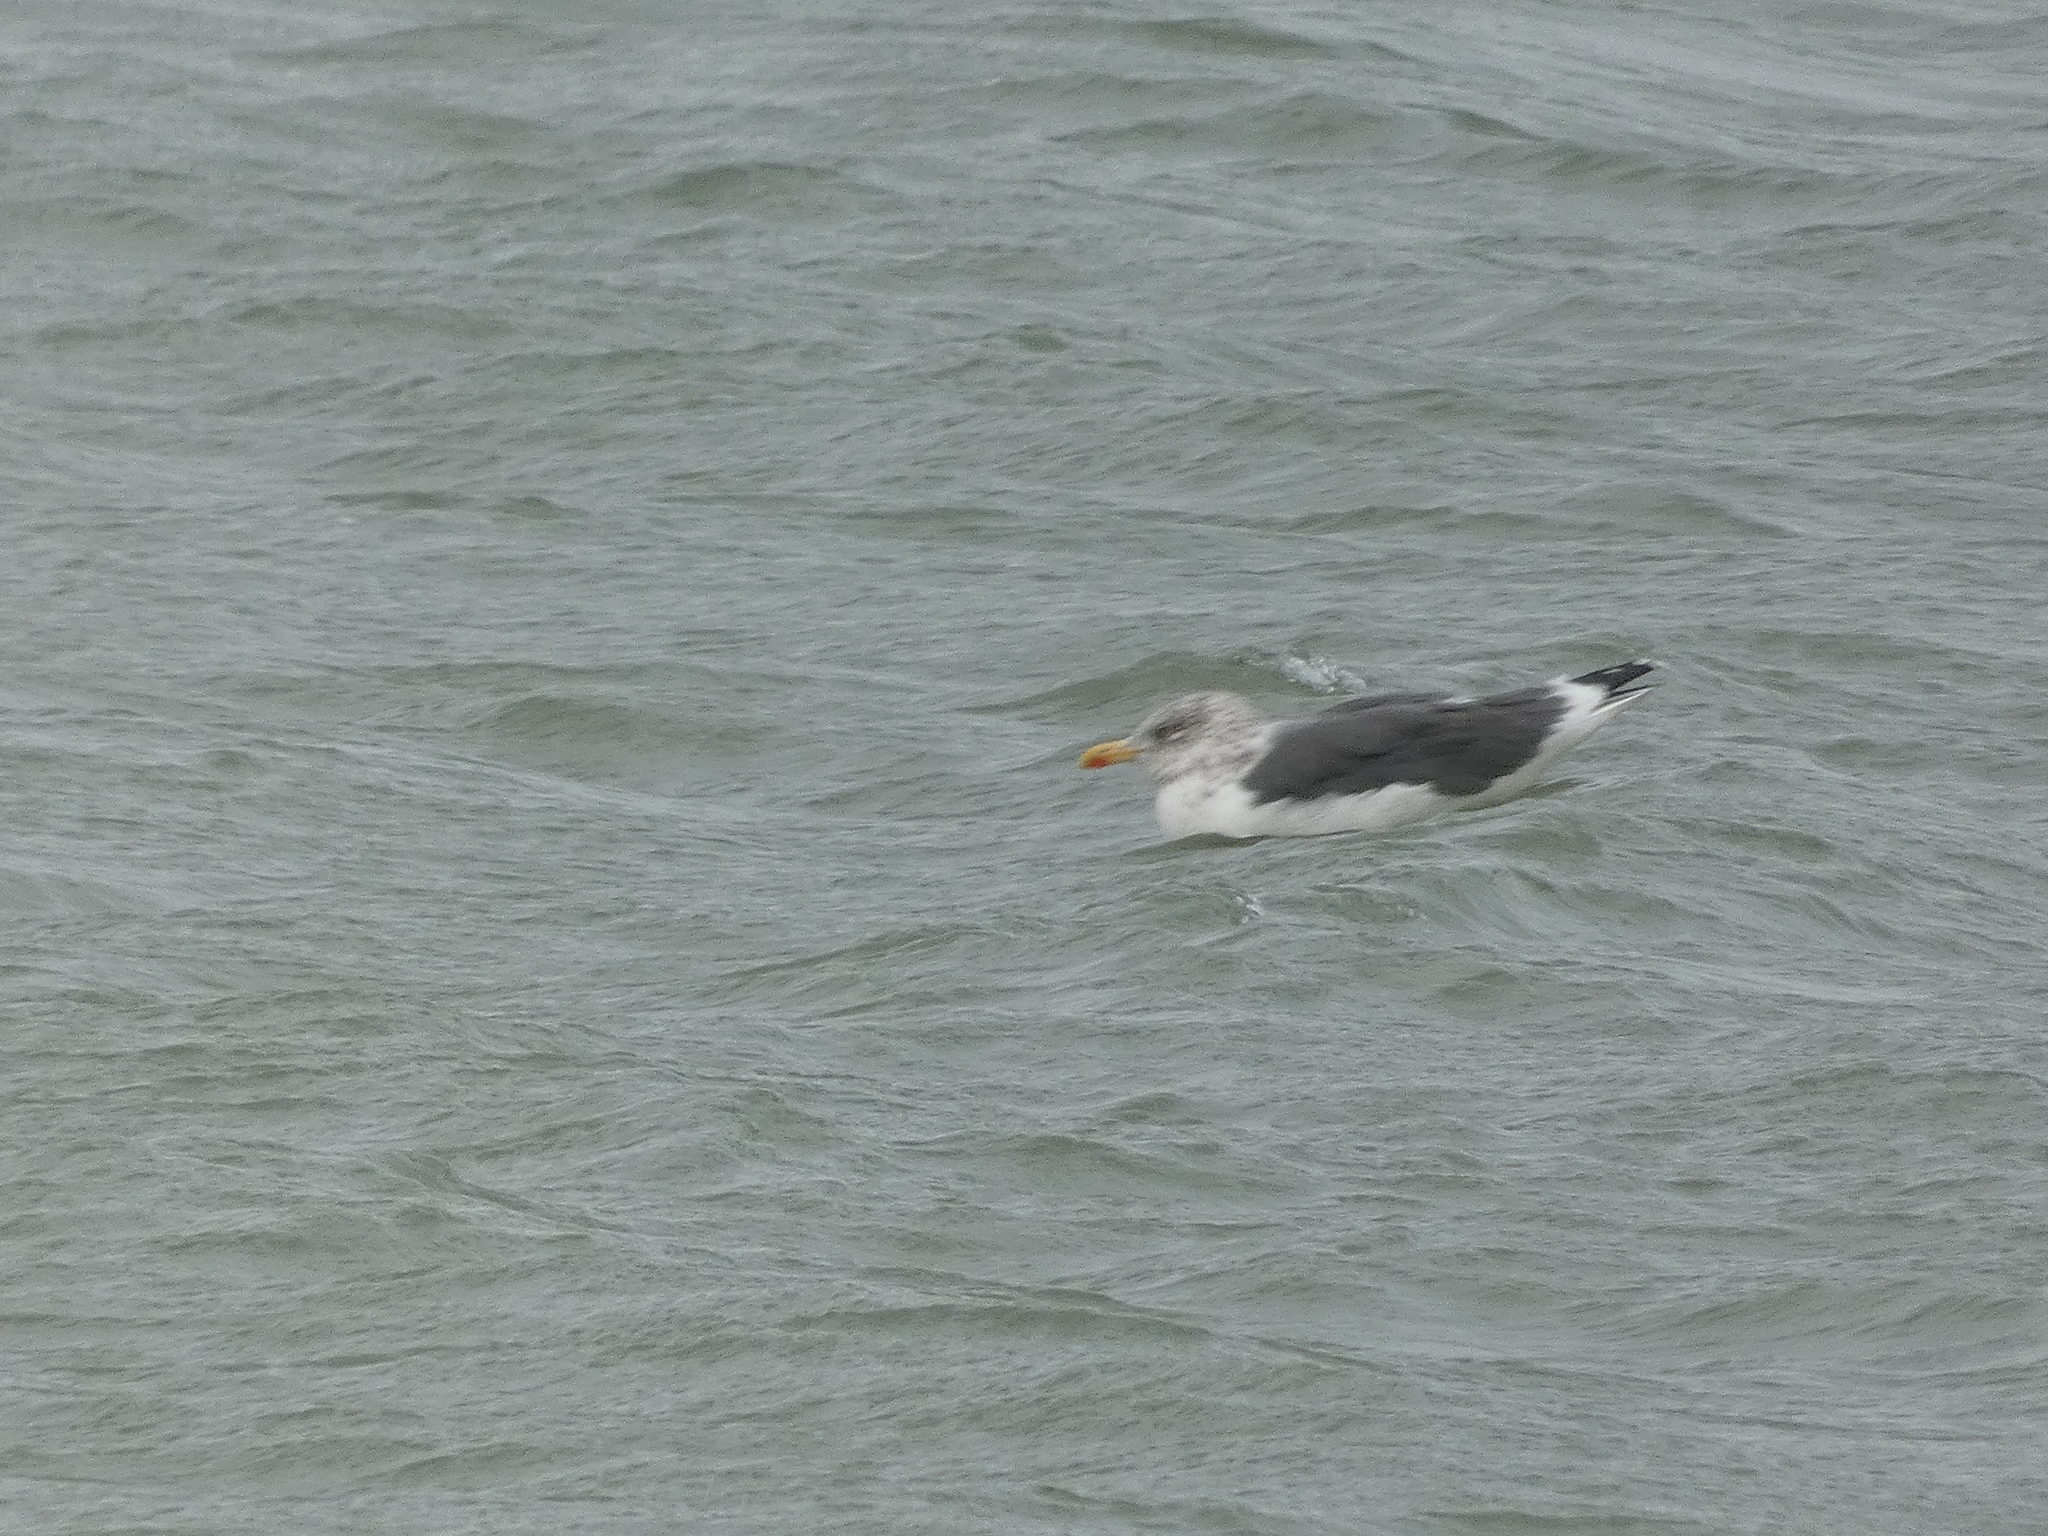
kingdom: Animalia
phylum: Chordata
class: Aves
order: Charadriiformes
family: Laridae
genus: Larus
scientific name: Larus fuscus
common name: Lesser black-backed gull
